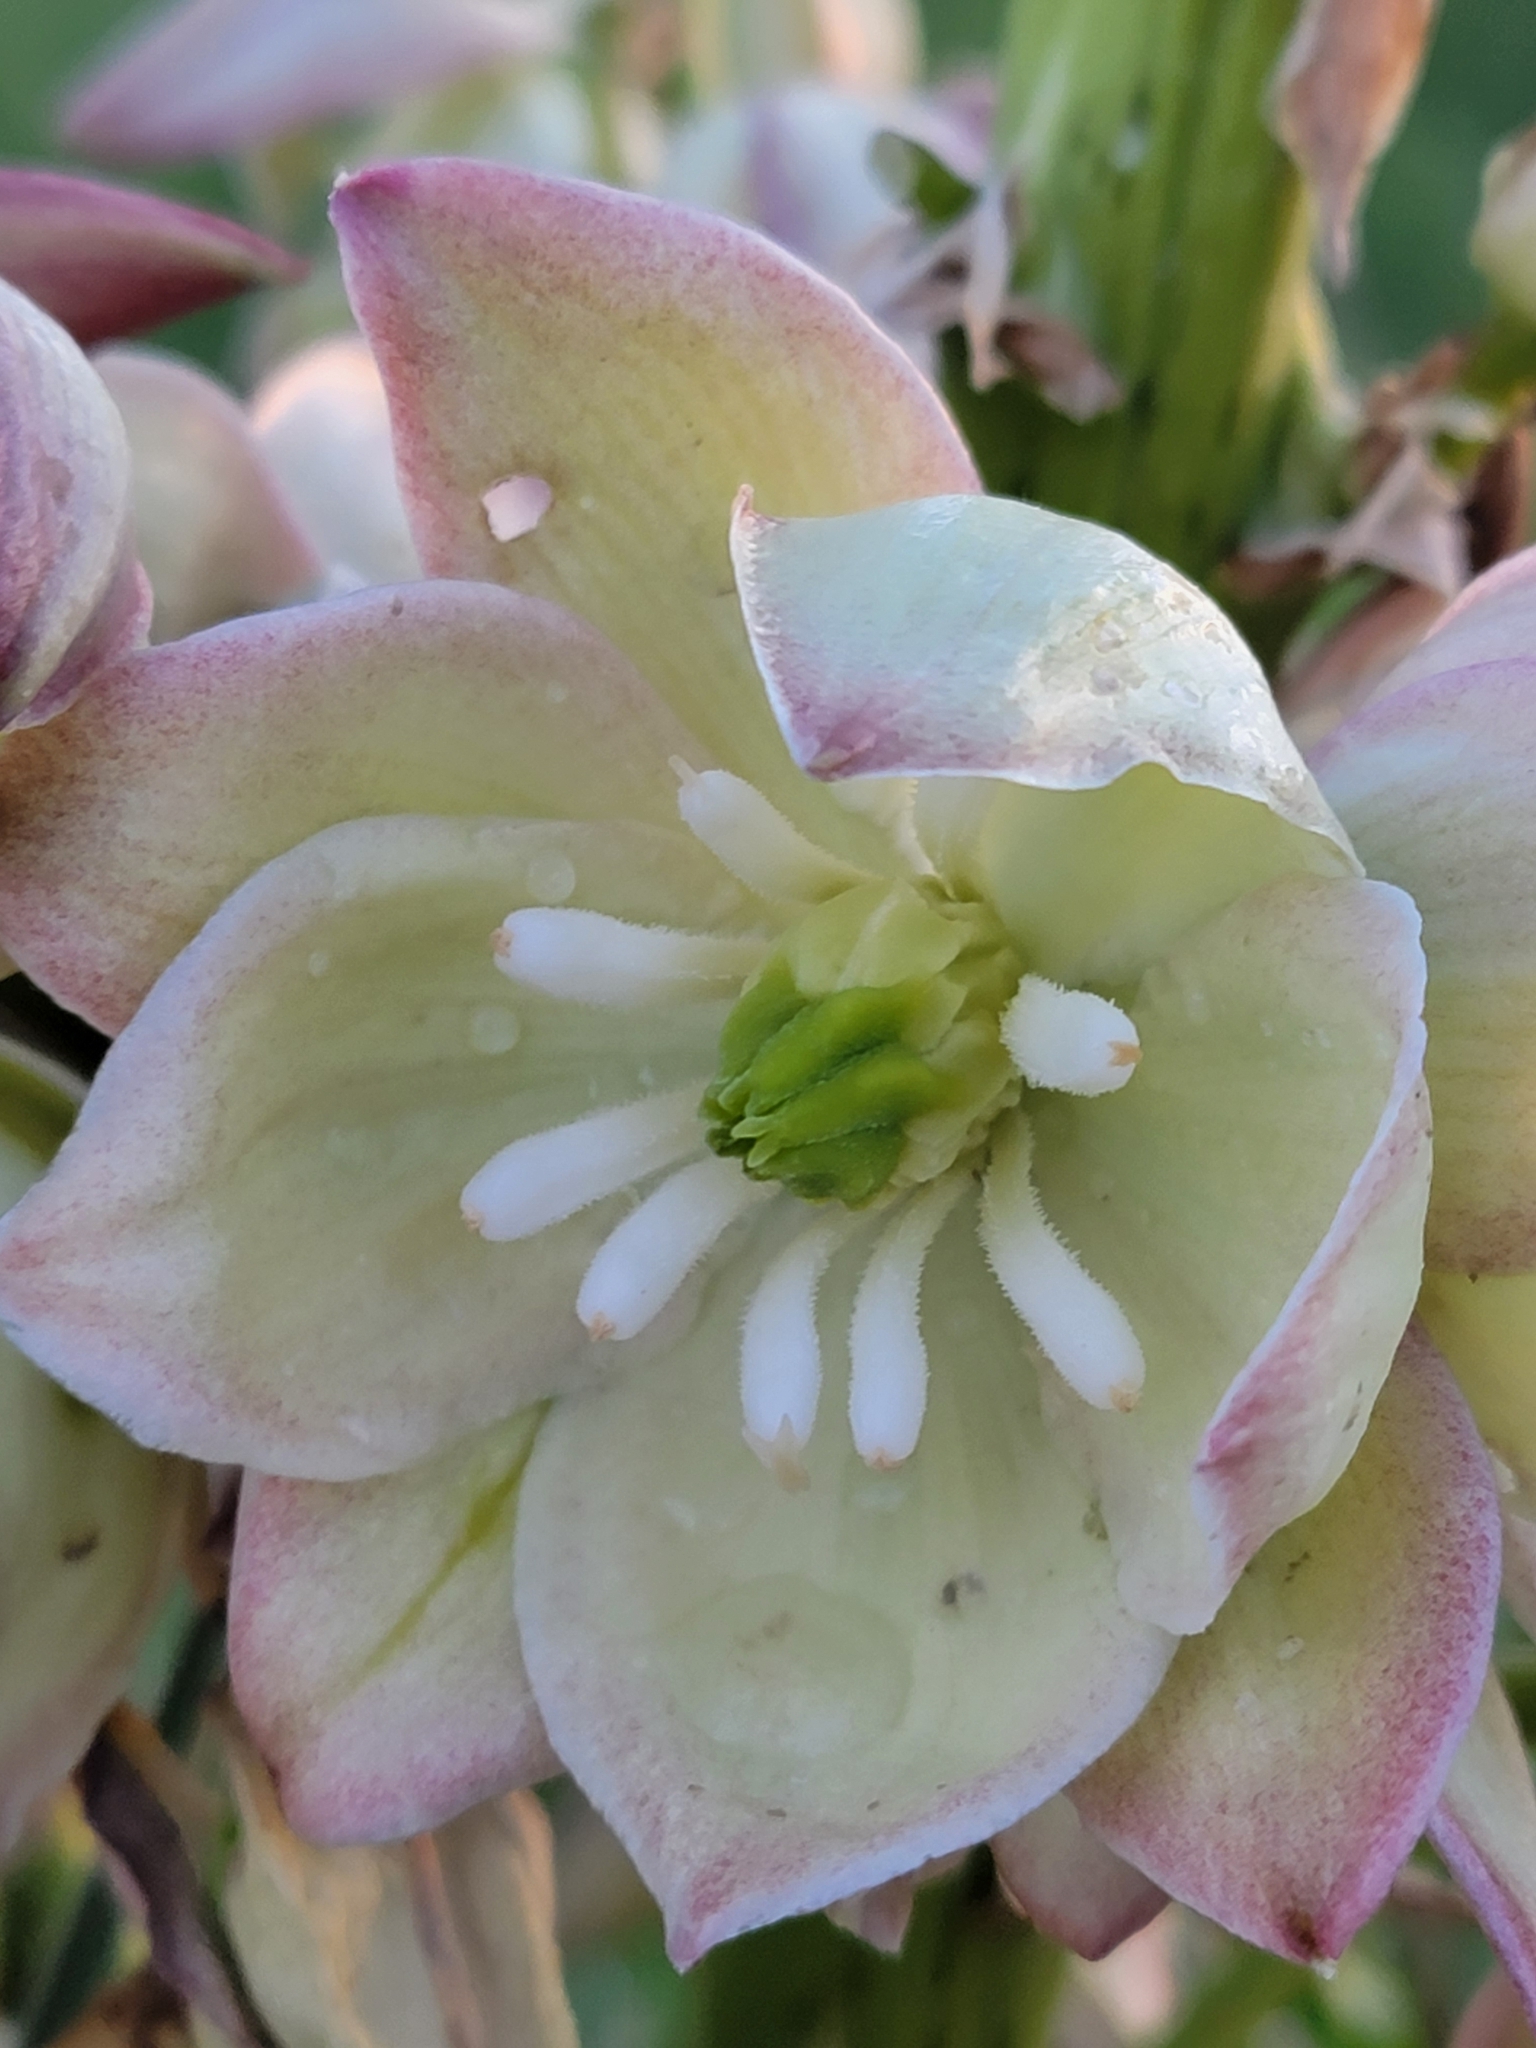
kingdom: Plantae
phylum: Tracheophyta
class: Liliopsida
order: Asparagales
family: Asparagaceae
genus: Yucca
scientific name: Yucca glauca
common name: Great plains yucca
